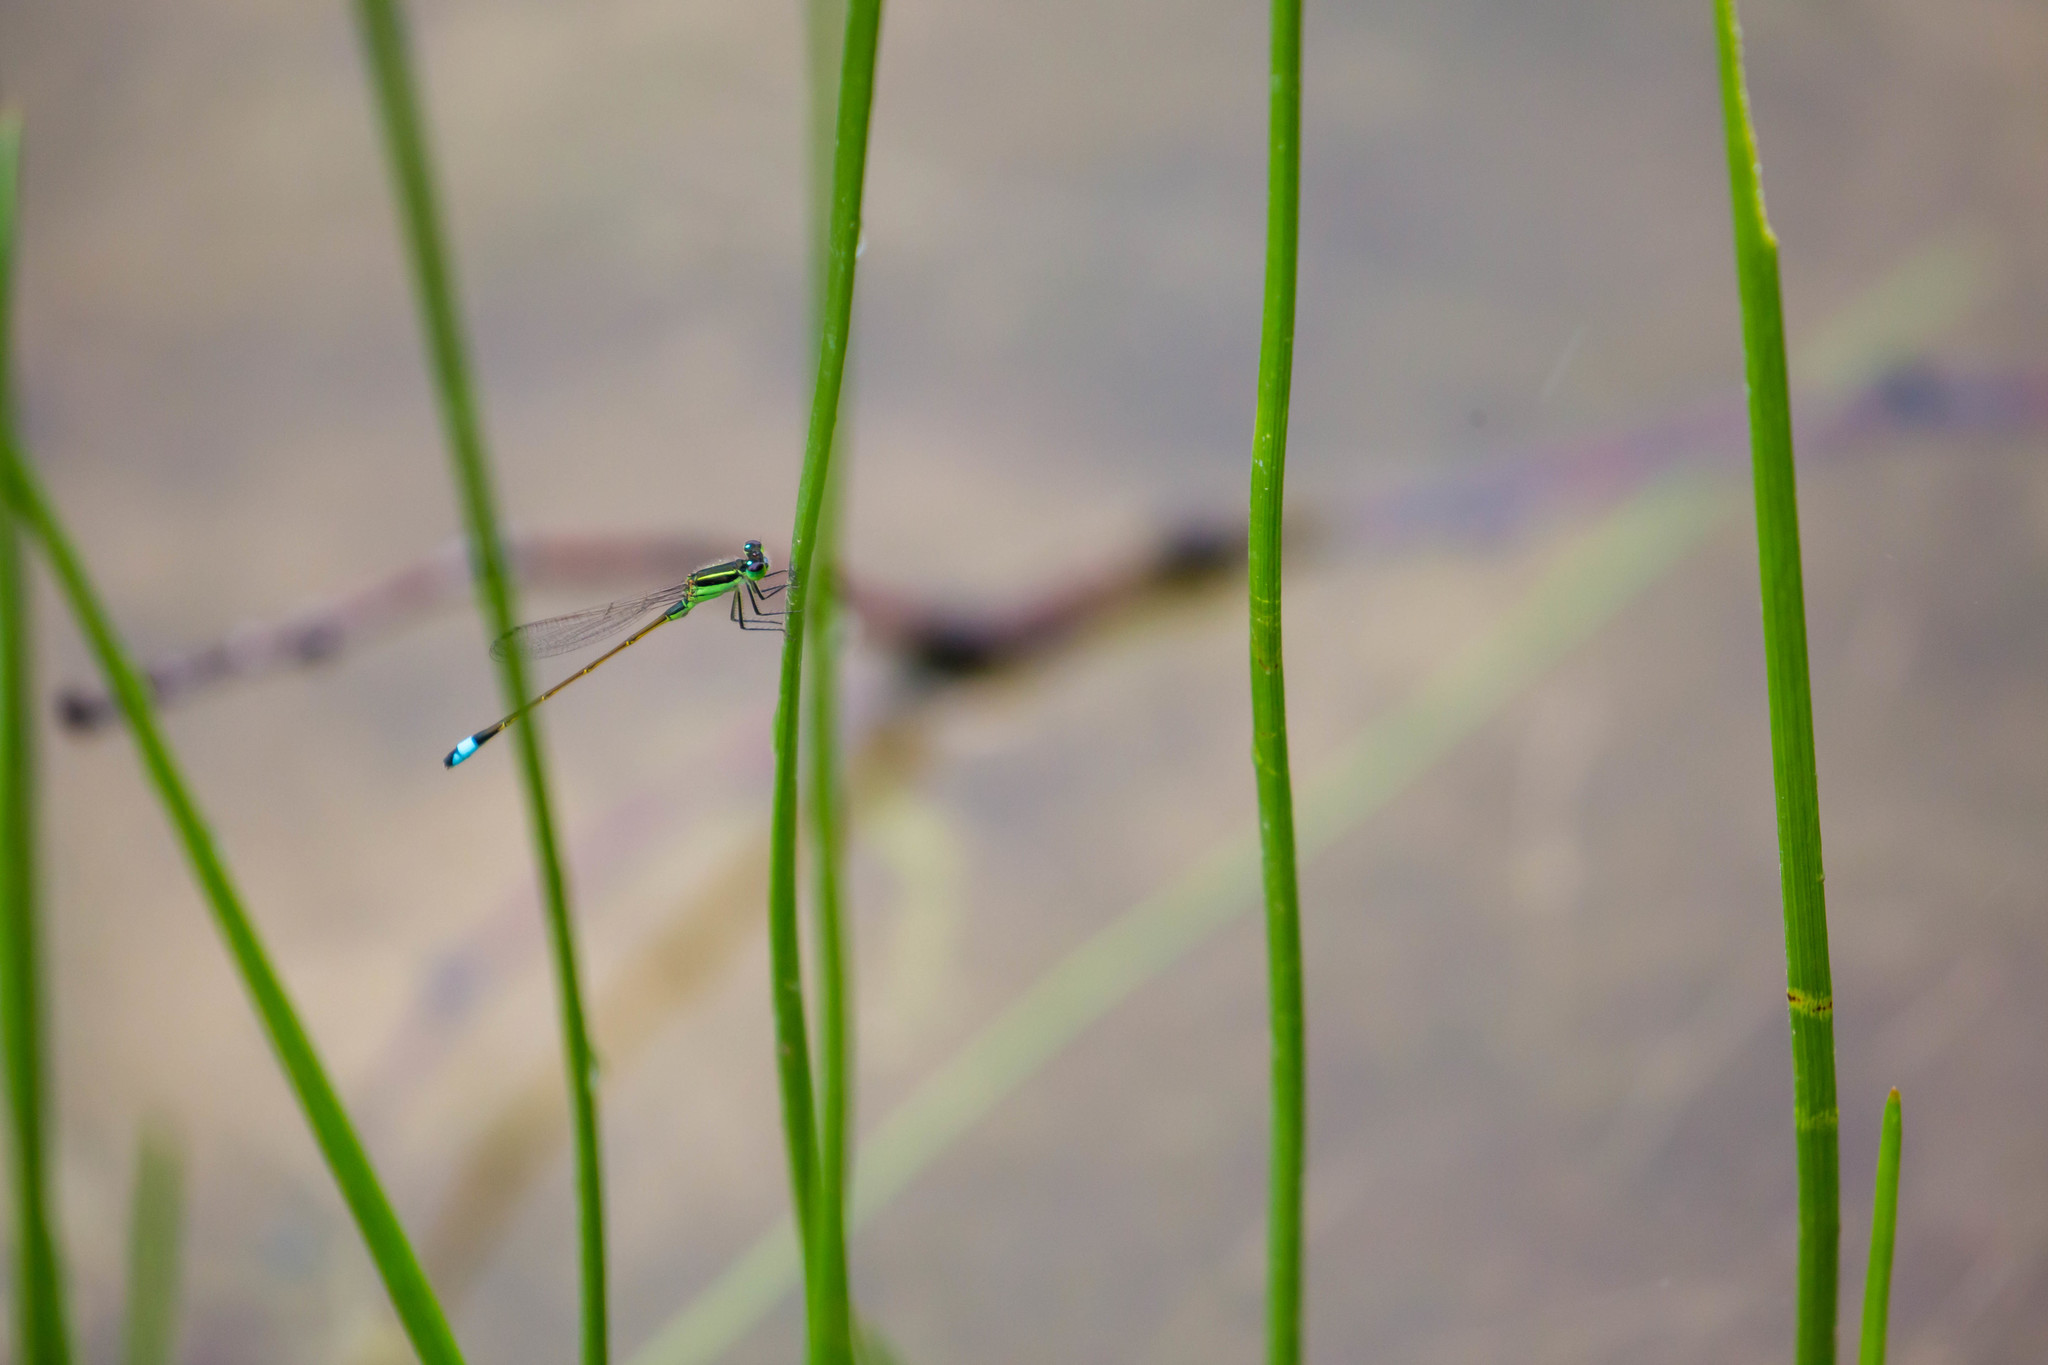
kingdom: Animalia
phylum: Arthropoda
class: Insecta
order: Odonata
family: Coenagrionidae
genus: Ischnura
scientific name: Ischnura ramburii
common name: Rambur's forktail
